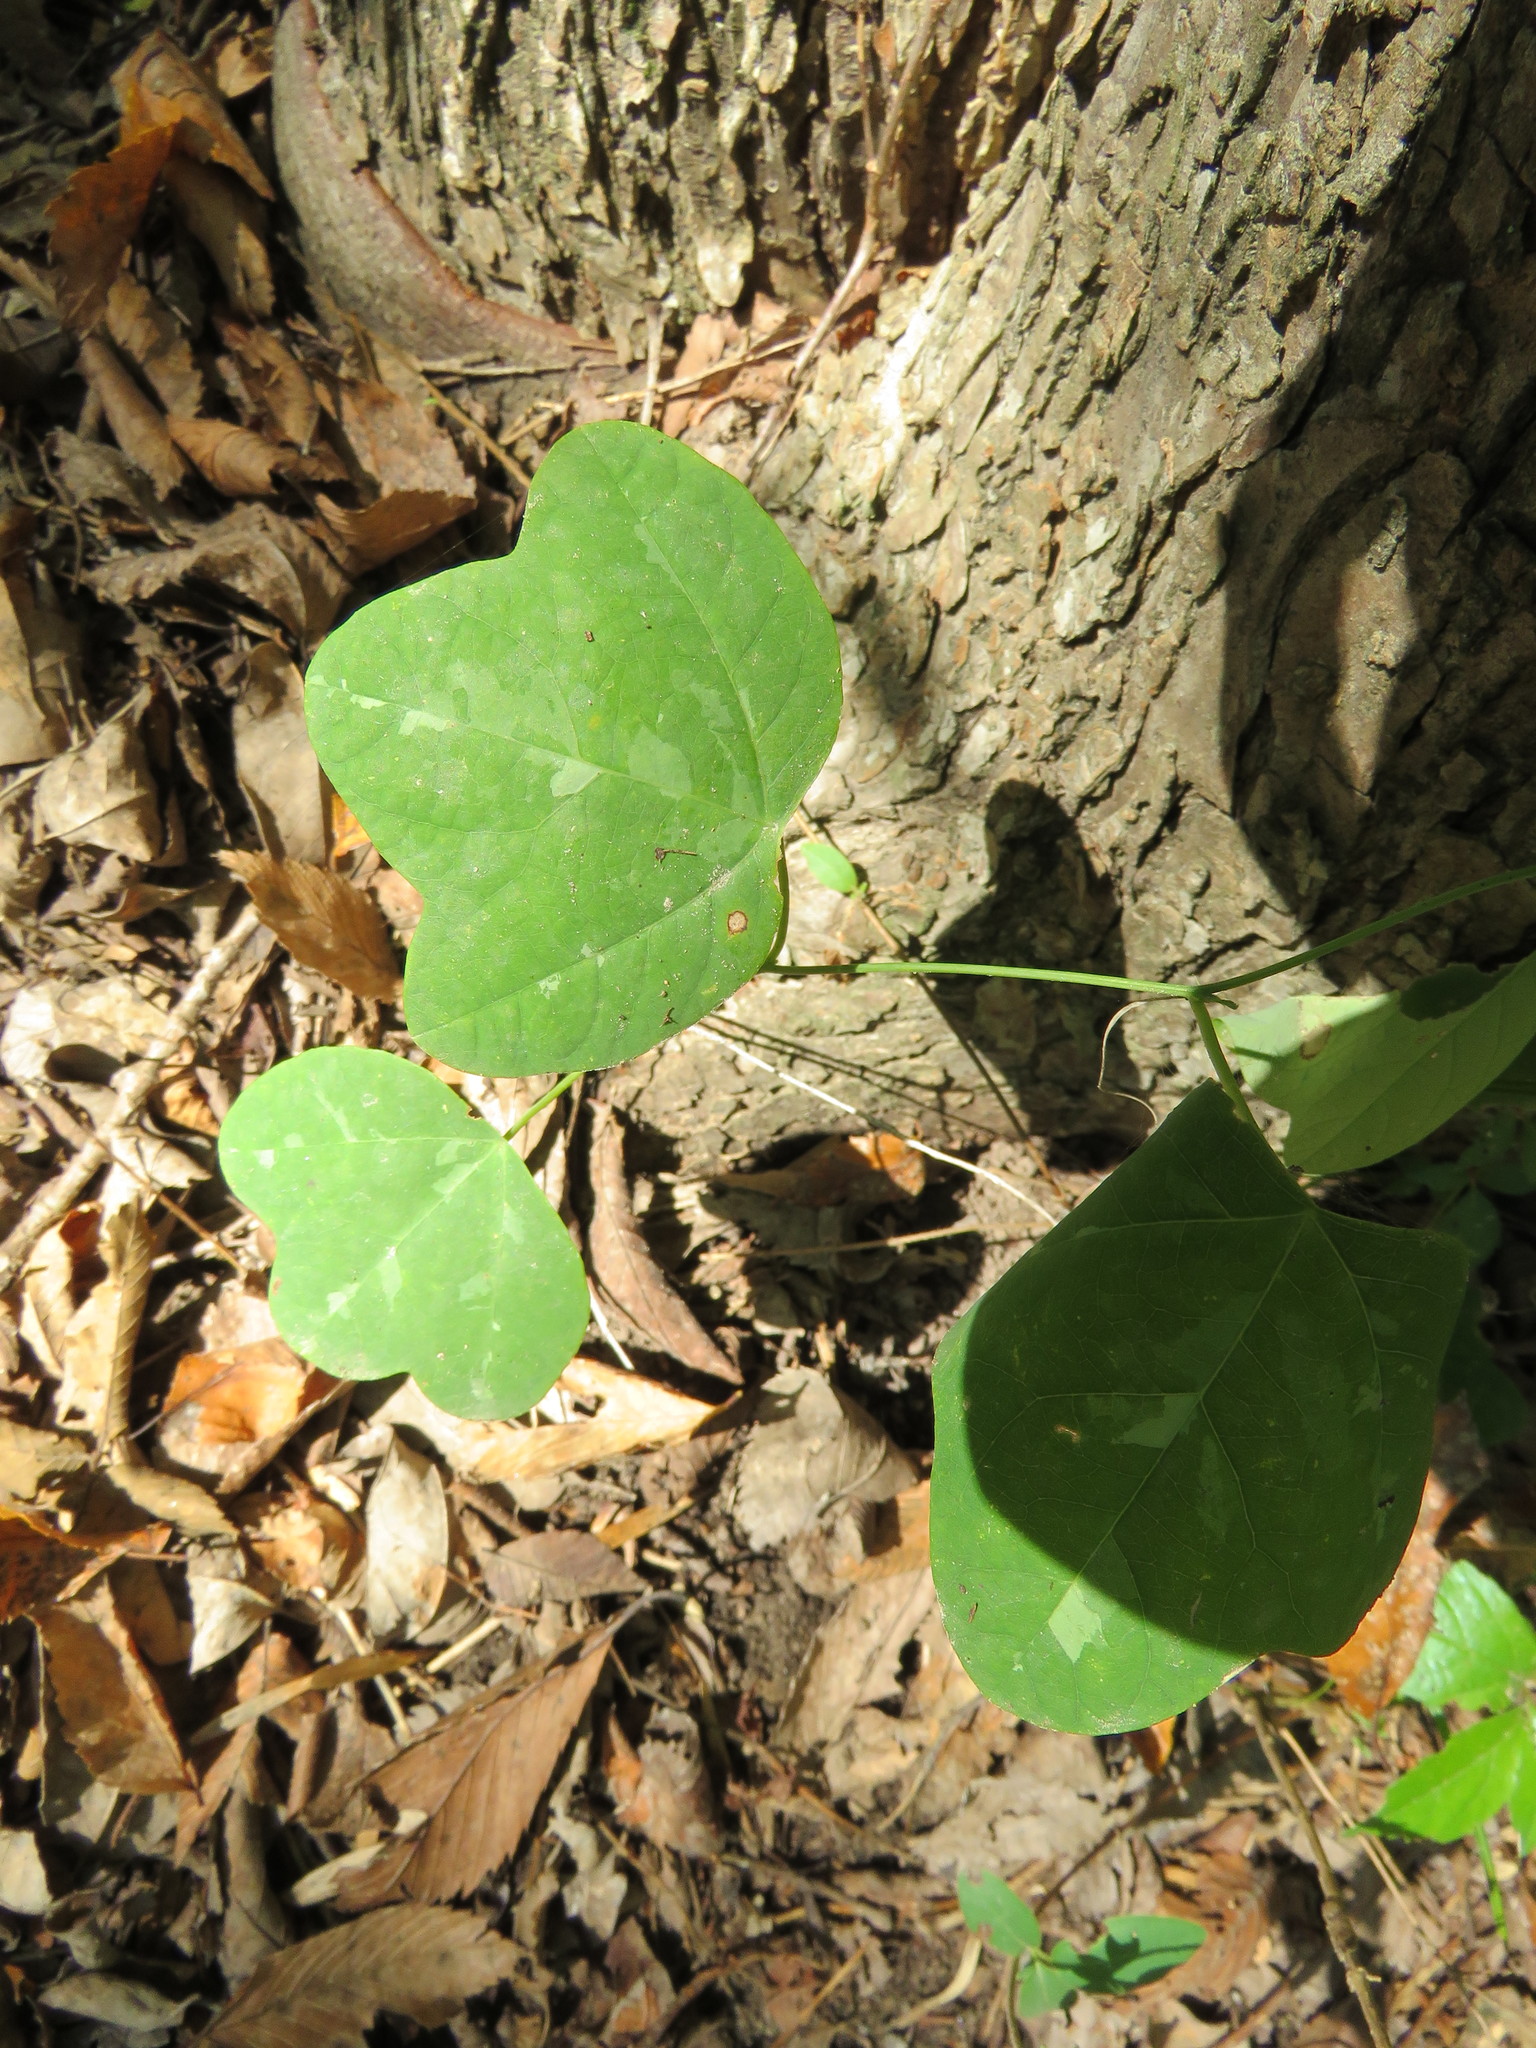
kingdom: Plantae
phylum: Tracheophyta
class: Magnoliopsida
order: Malpighiales
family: Passifloraceae
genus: Passiflora
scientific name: Passiflora lutea
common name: Yellow passionflower
